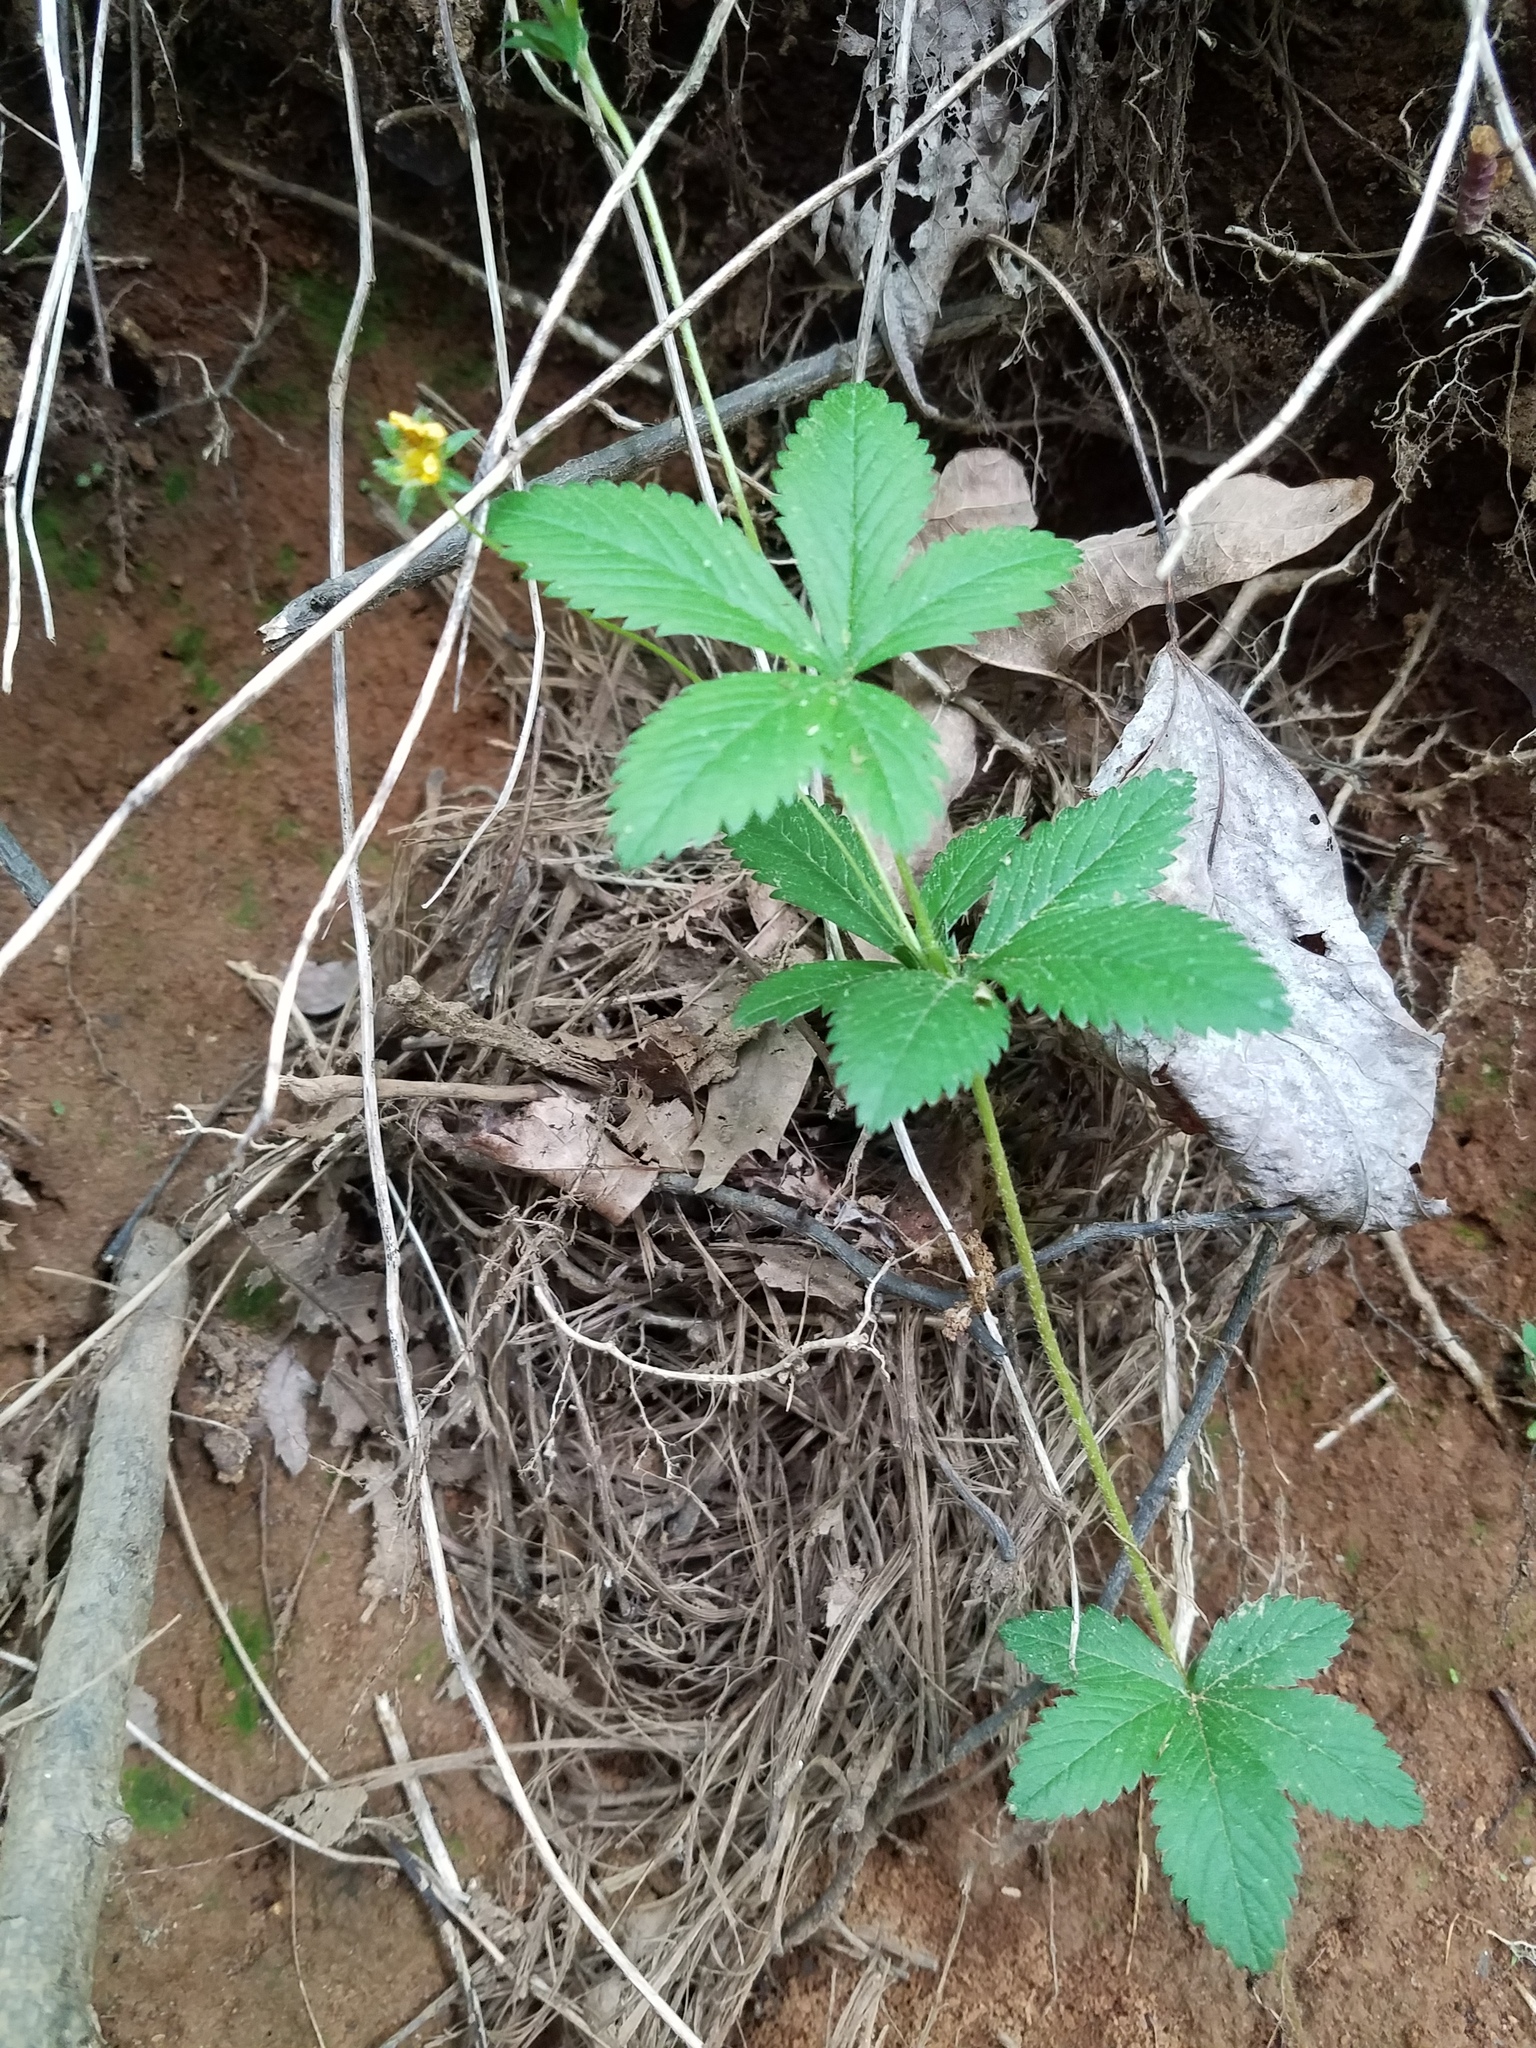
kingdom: Plantae
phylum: Tracheophyta
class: Magnoliopsida
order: Rosales
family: Rosaceae
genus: Potentilla
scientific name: Potentilla simplex
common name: Old field cinquefoil
